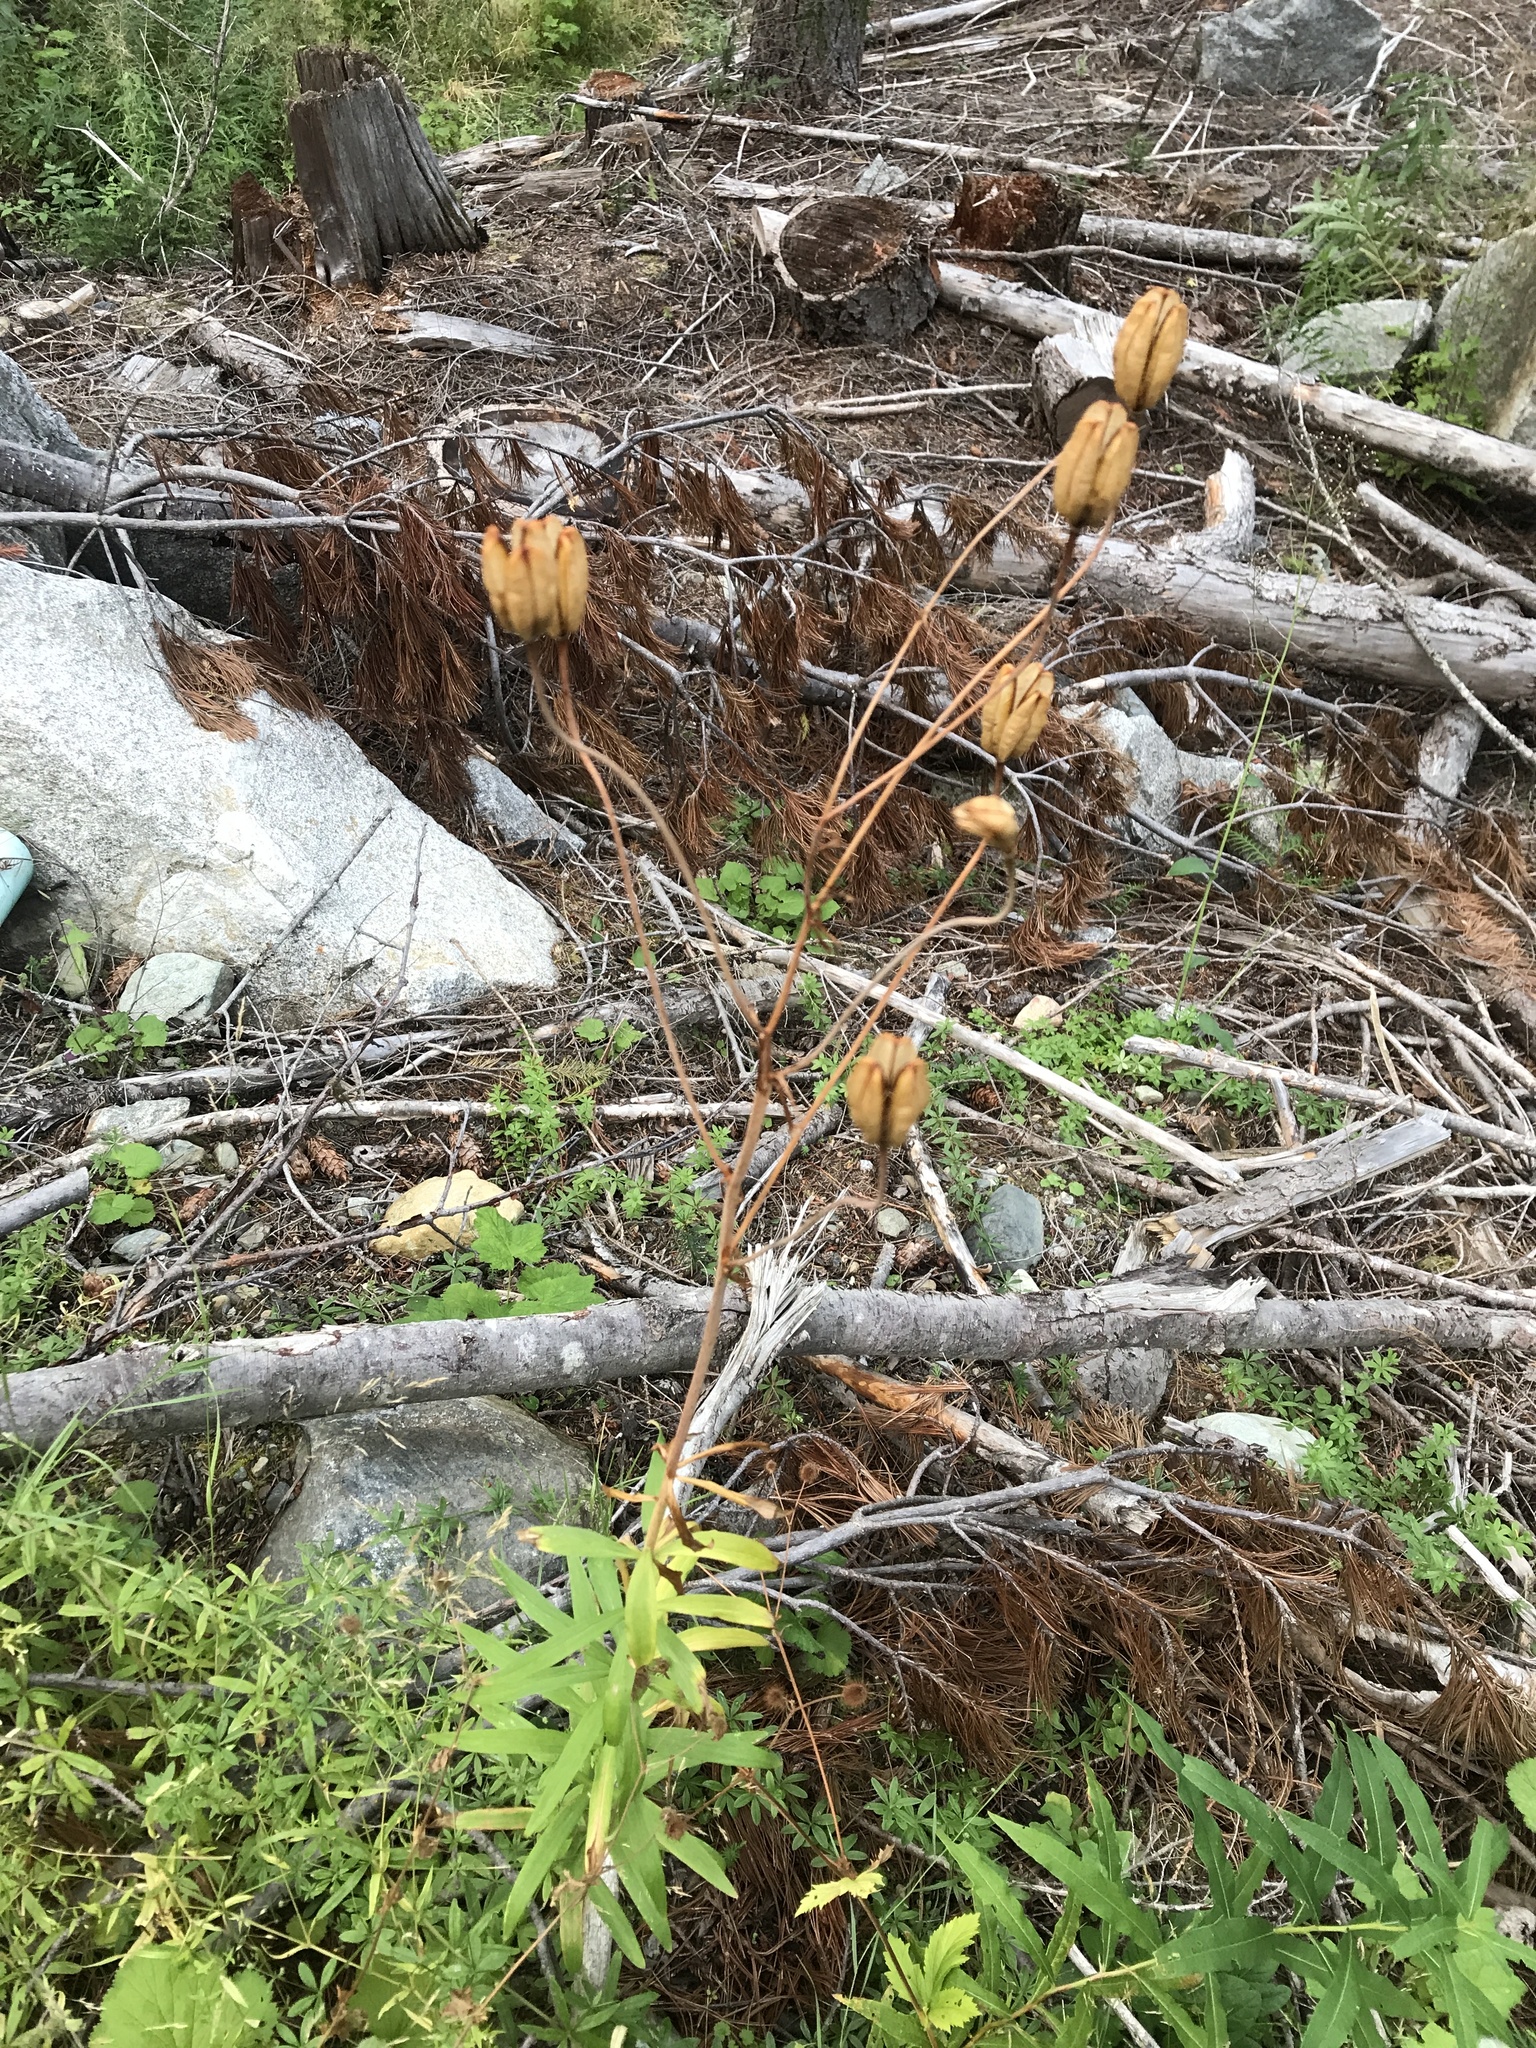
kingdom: Plantae
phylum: Tracheophyta
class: Liliopsida
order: Liliales
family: Liliaceae
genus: Lilium
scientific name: Lilium columbianum
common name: Columbia lily
